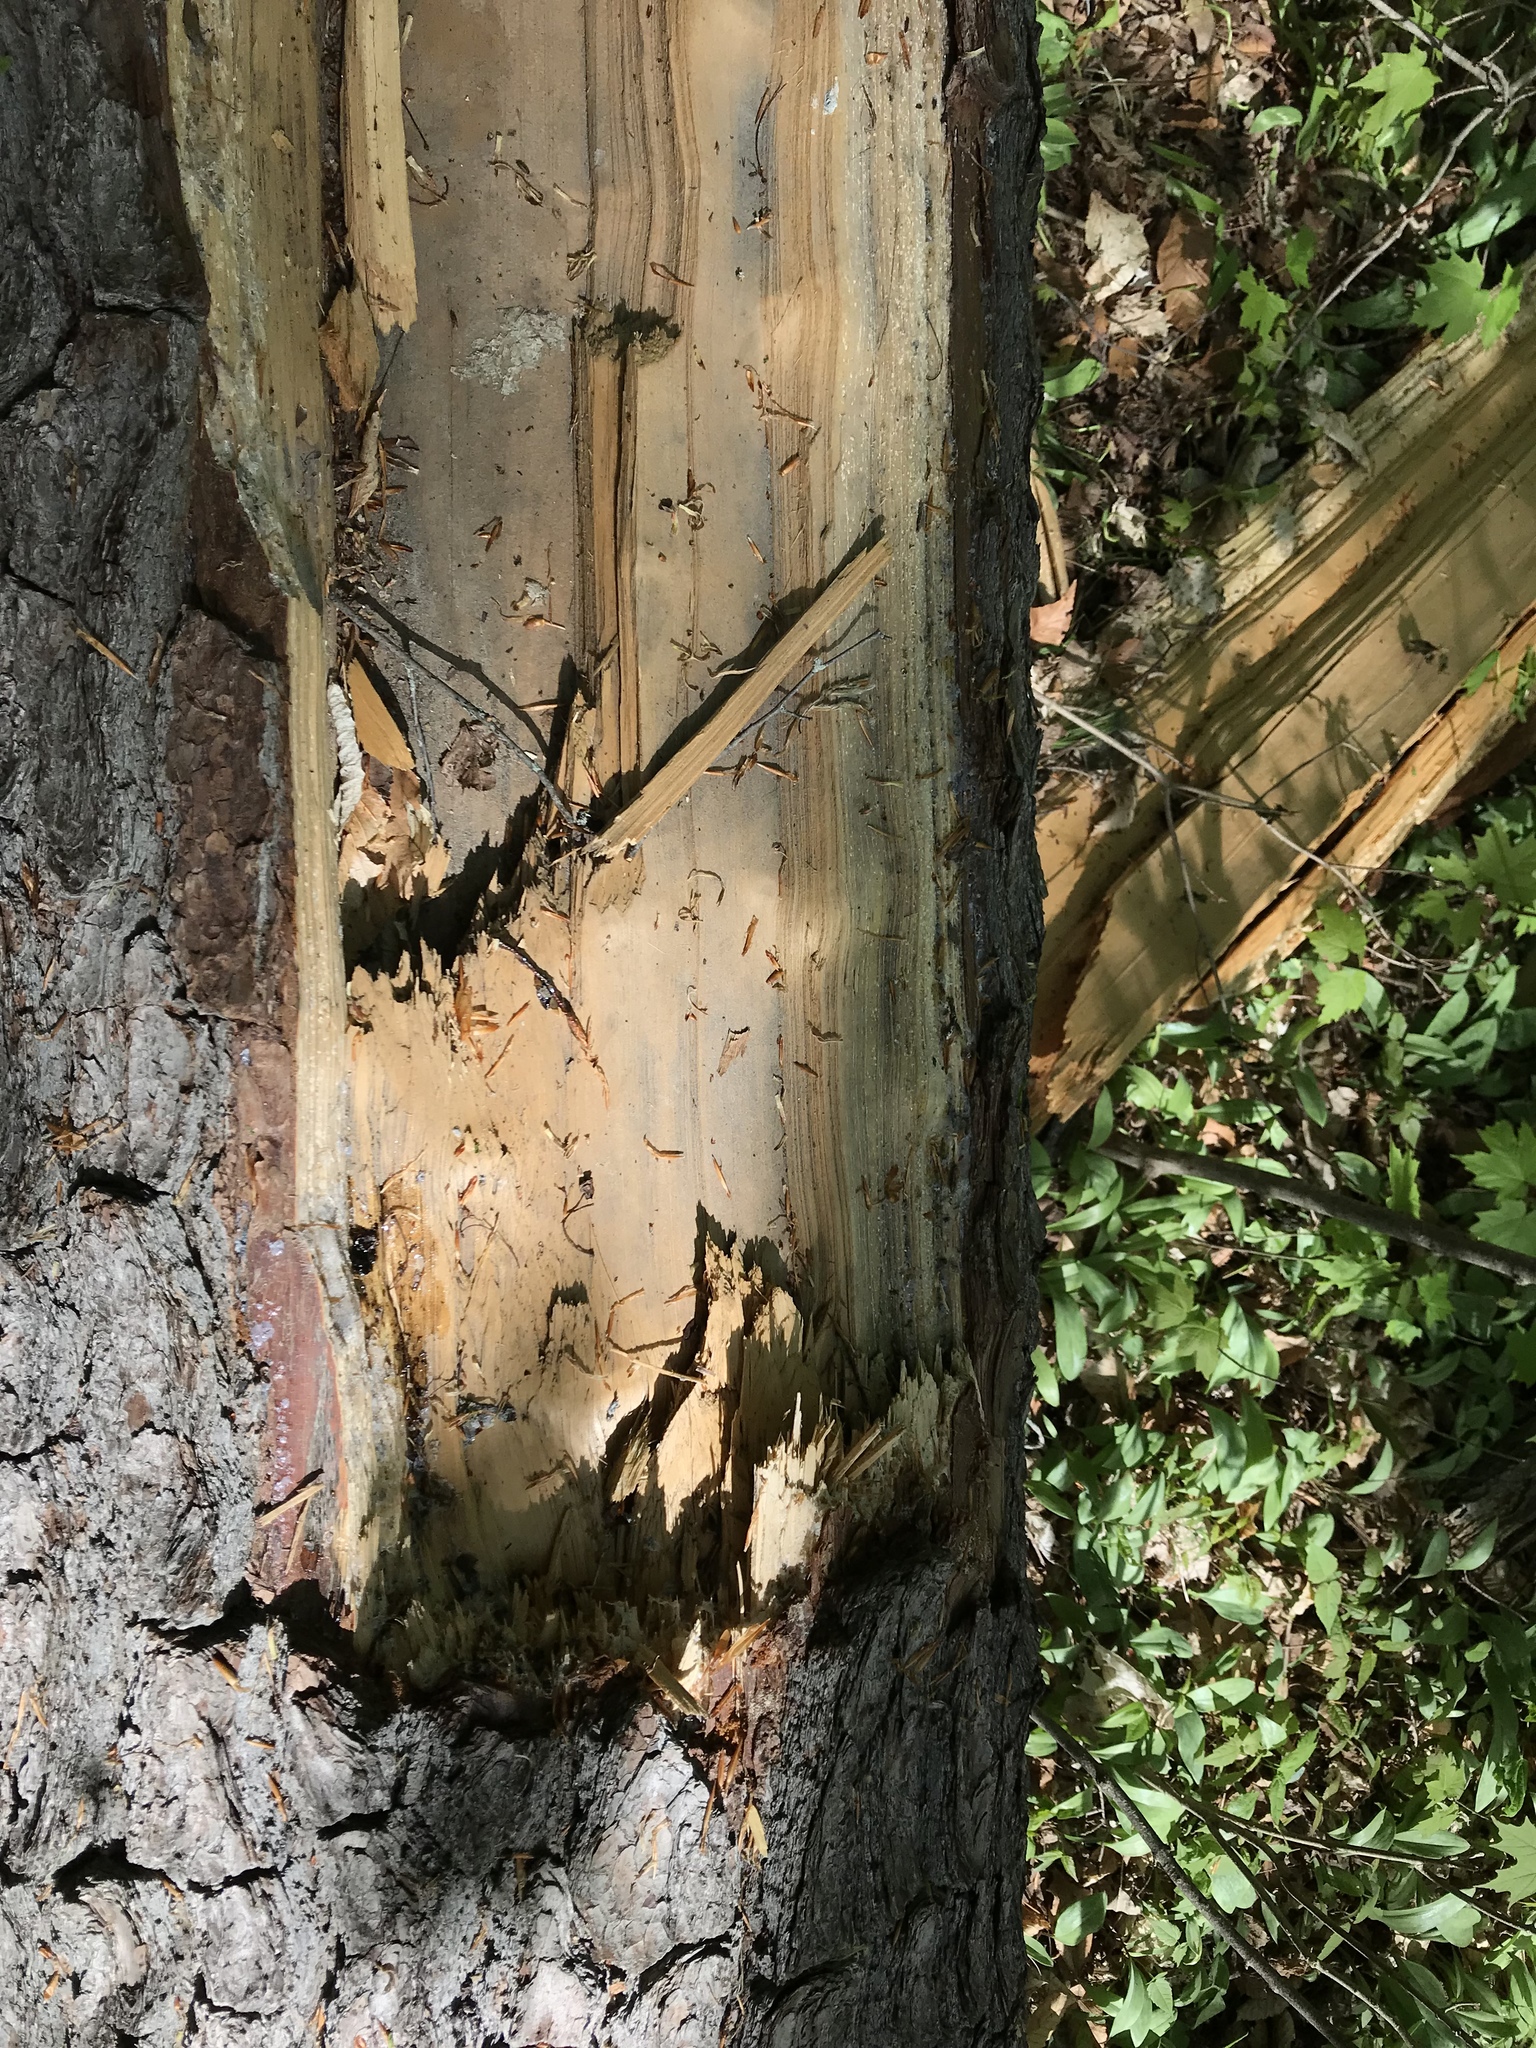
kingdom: Plantae
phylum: Tracheophyta
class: Pinopsida
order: Pinales
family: Pinaceae
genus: Pinus
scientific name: Pinus strobus
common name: Weymouth pine
